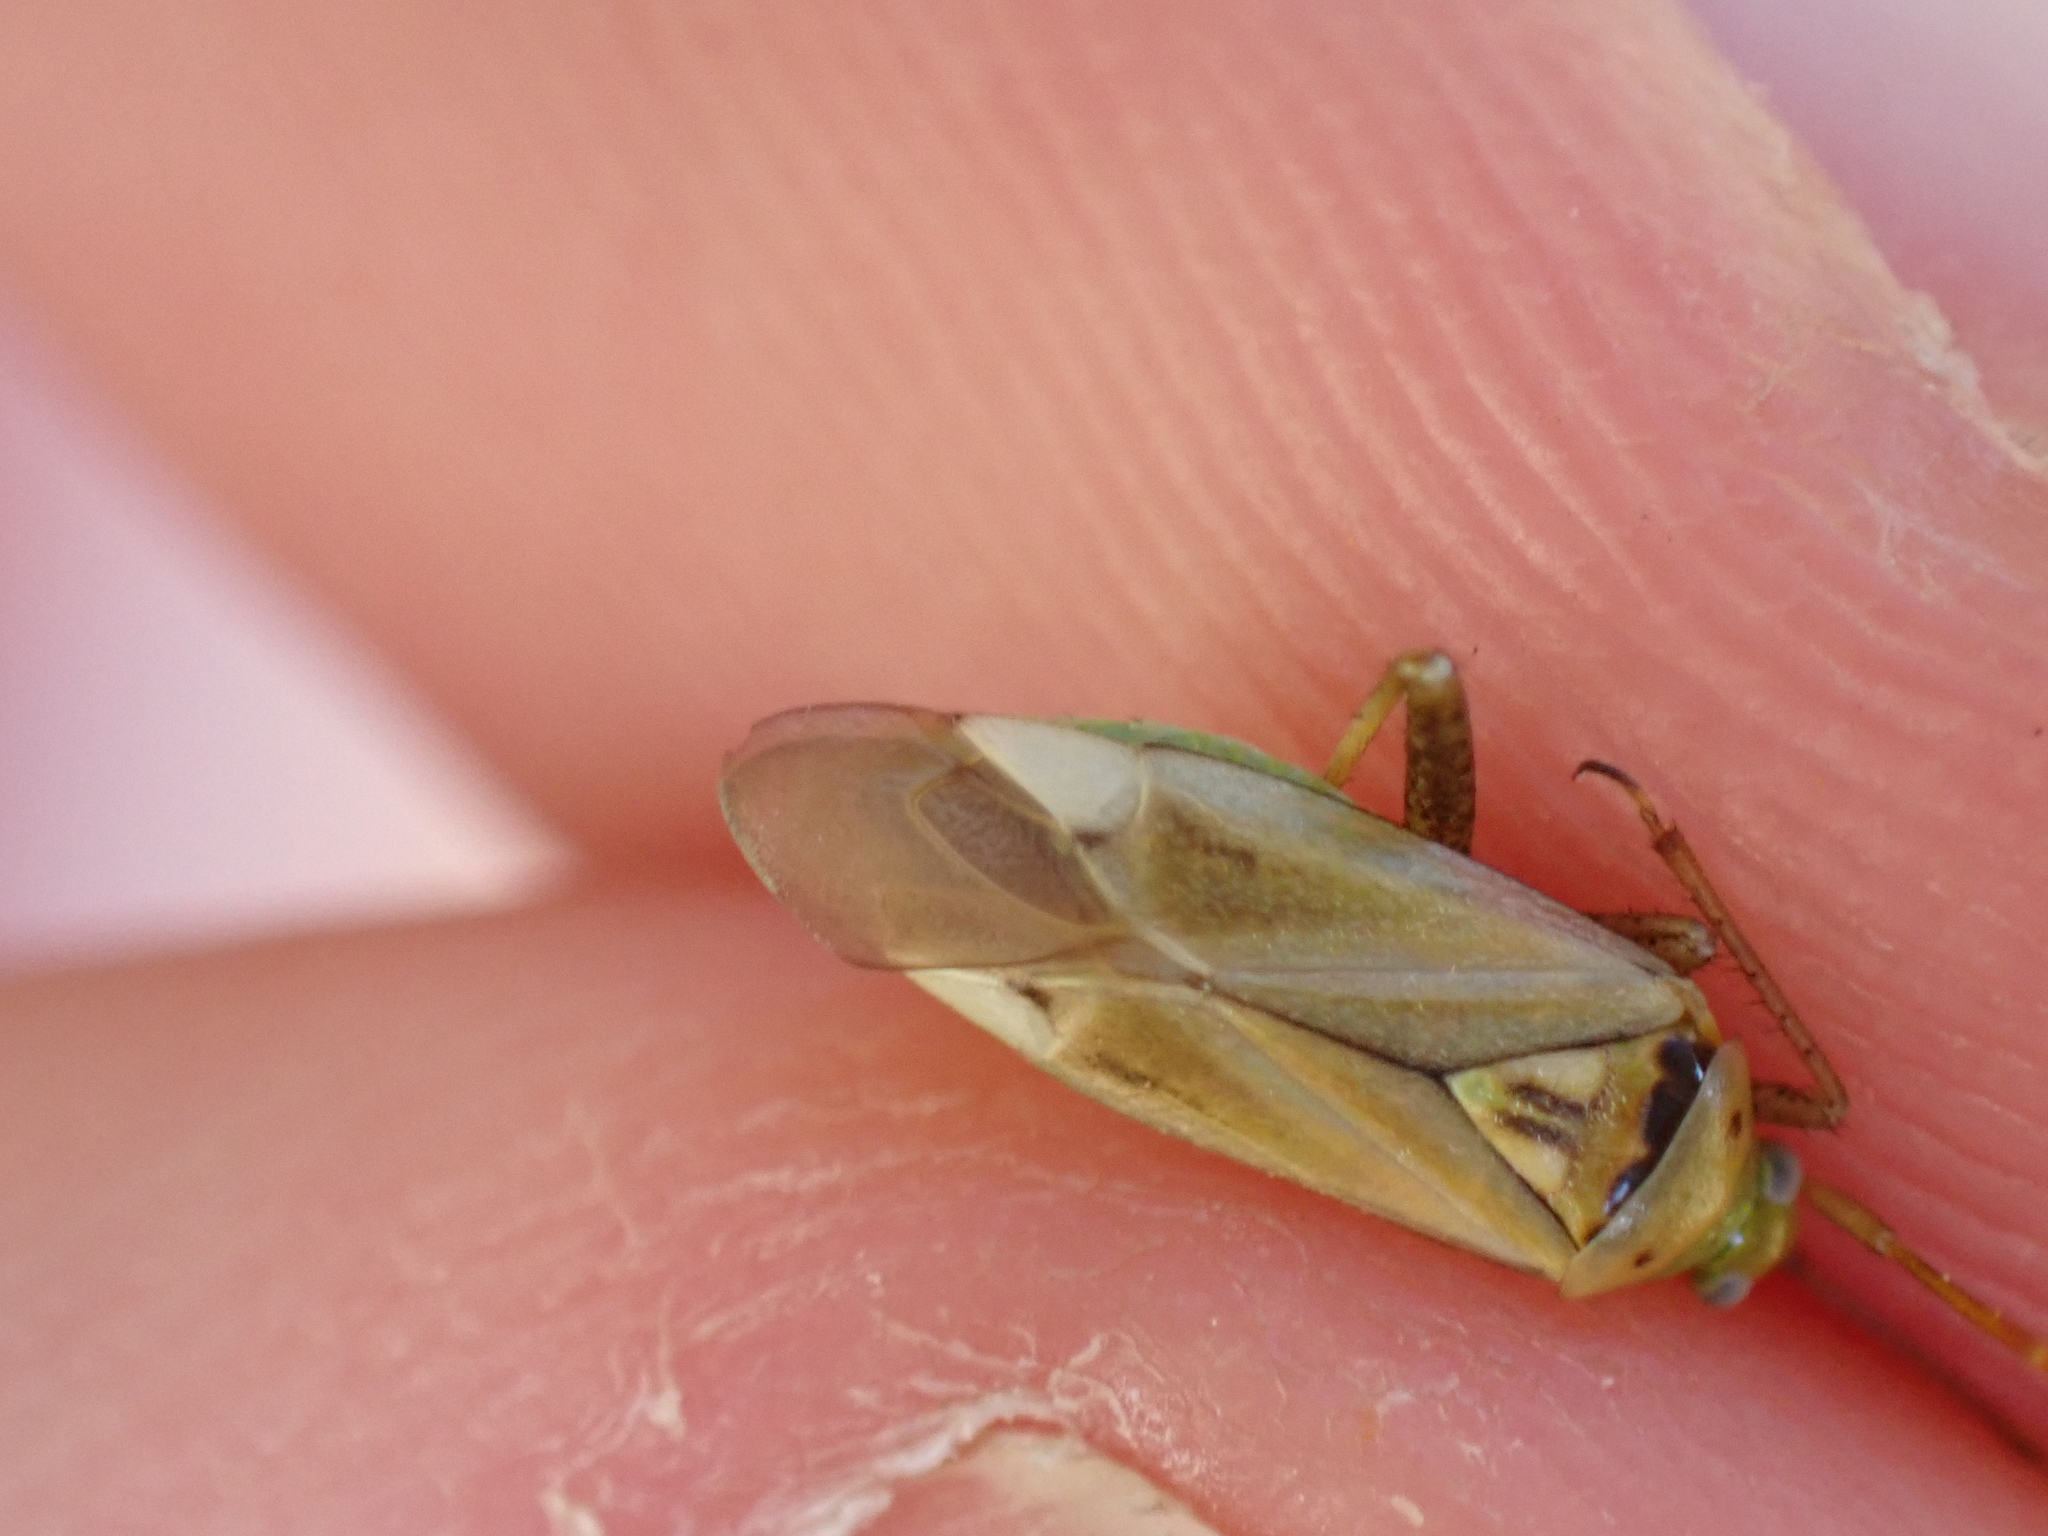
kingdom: Animalia
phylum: Arthropoda
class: Insecta
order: Hemiptera
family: Miridae
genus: Adelphocoris
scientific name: Adelphocoris lineolatus
